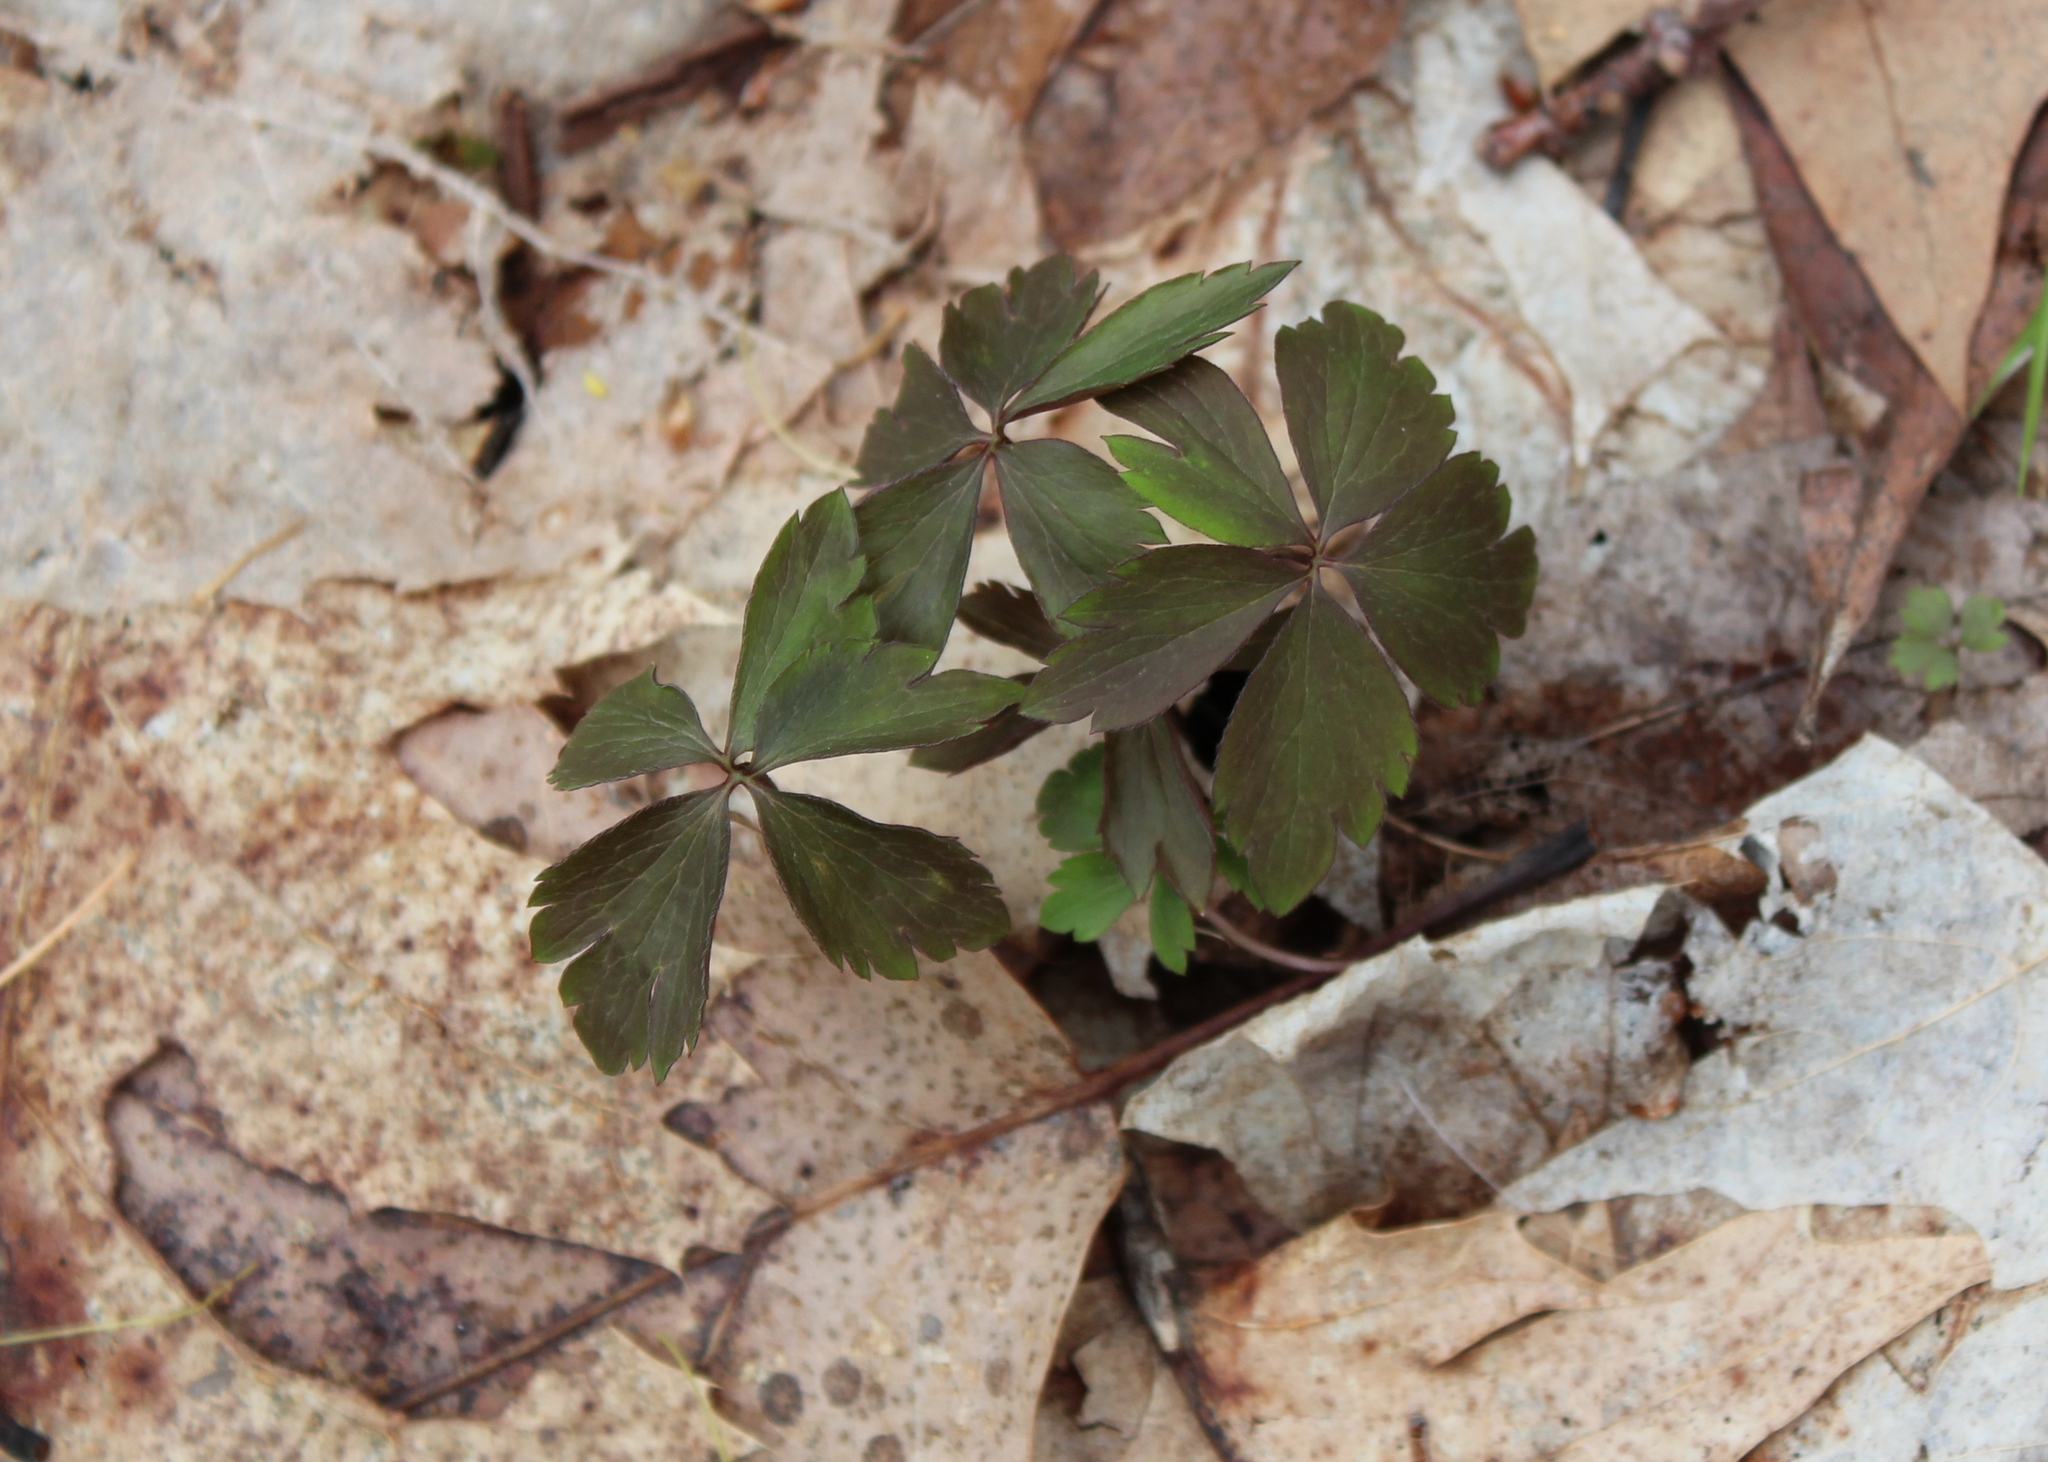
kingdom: Plantae
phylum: Tracheophyta
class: Magnoliopsida
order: Ranunculales
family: Ranunculaceae
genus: Anemone
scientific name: Anemone quinquefolia
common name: Wood anemone
